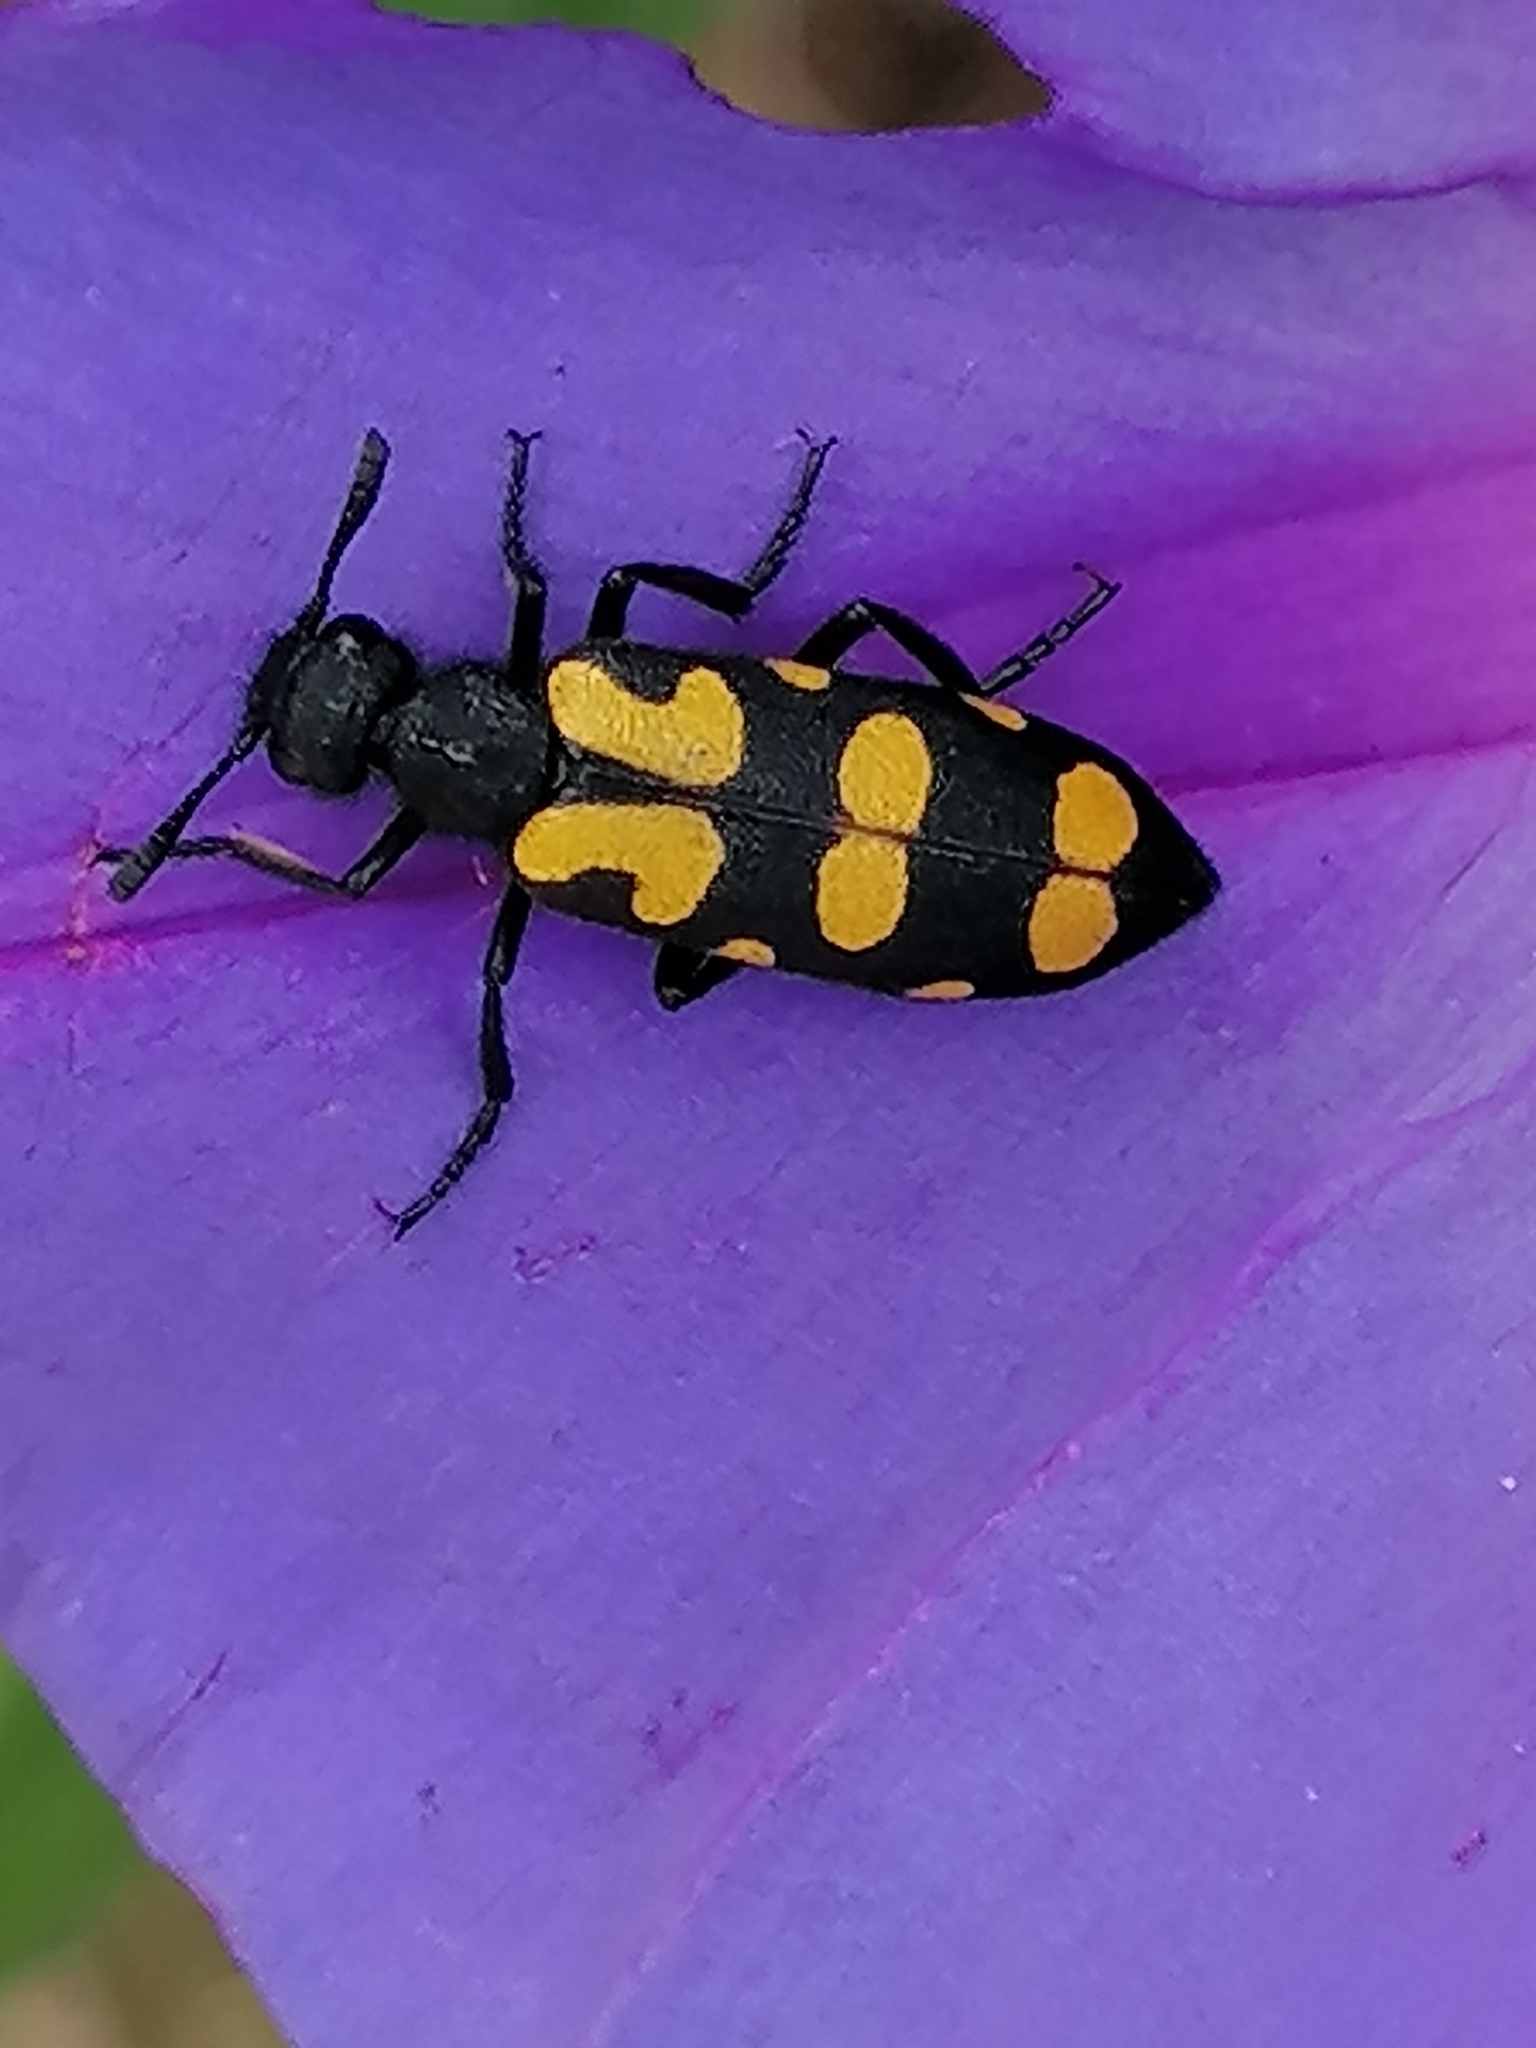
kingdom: Animalia
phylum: Arthropoda
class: Insecta
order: Coleoptera
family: Meloidae
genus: Ceroctis
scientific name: Ceroctis capensis
